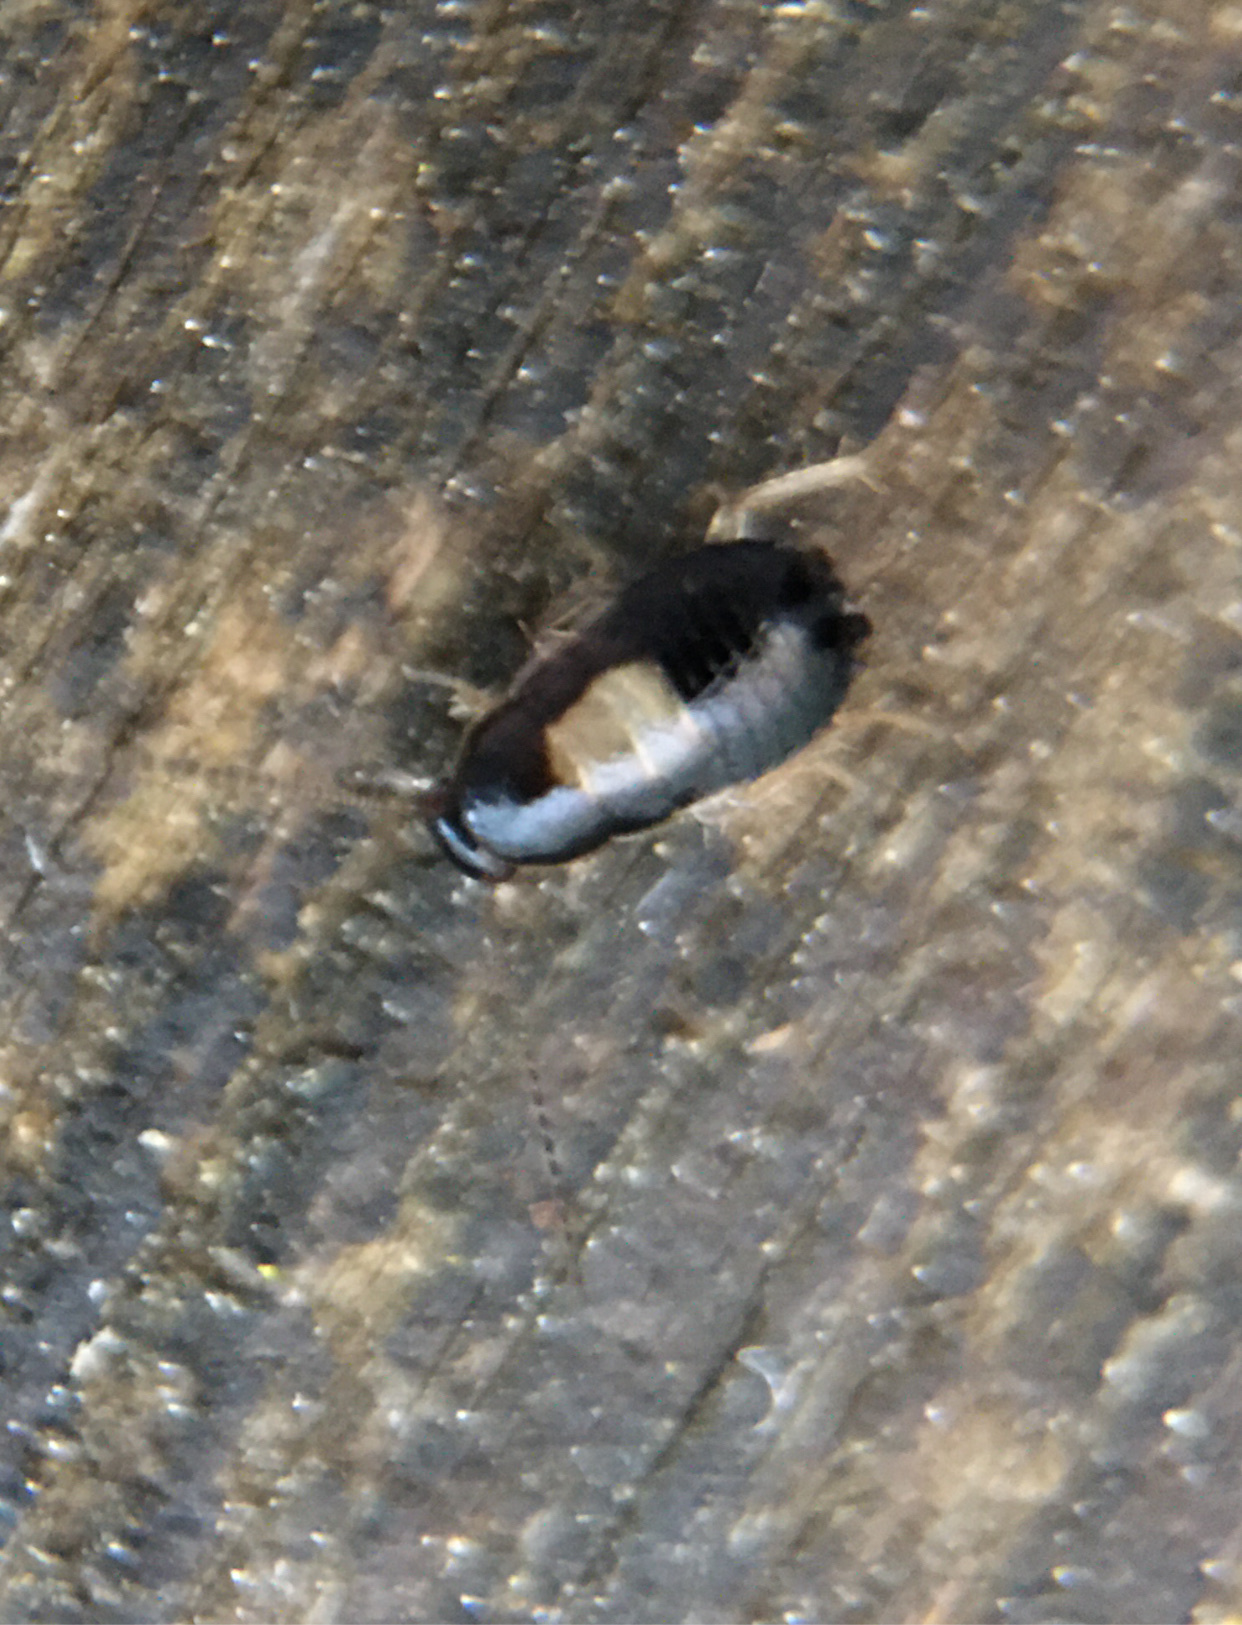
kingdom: Animalia
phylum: Arthropoda
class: Insecta
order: Blattodea
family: Ectobiidae
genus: Luridiblatta
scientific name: Luridiblatta trivittata
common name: Three-lined cockroach
